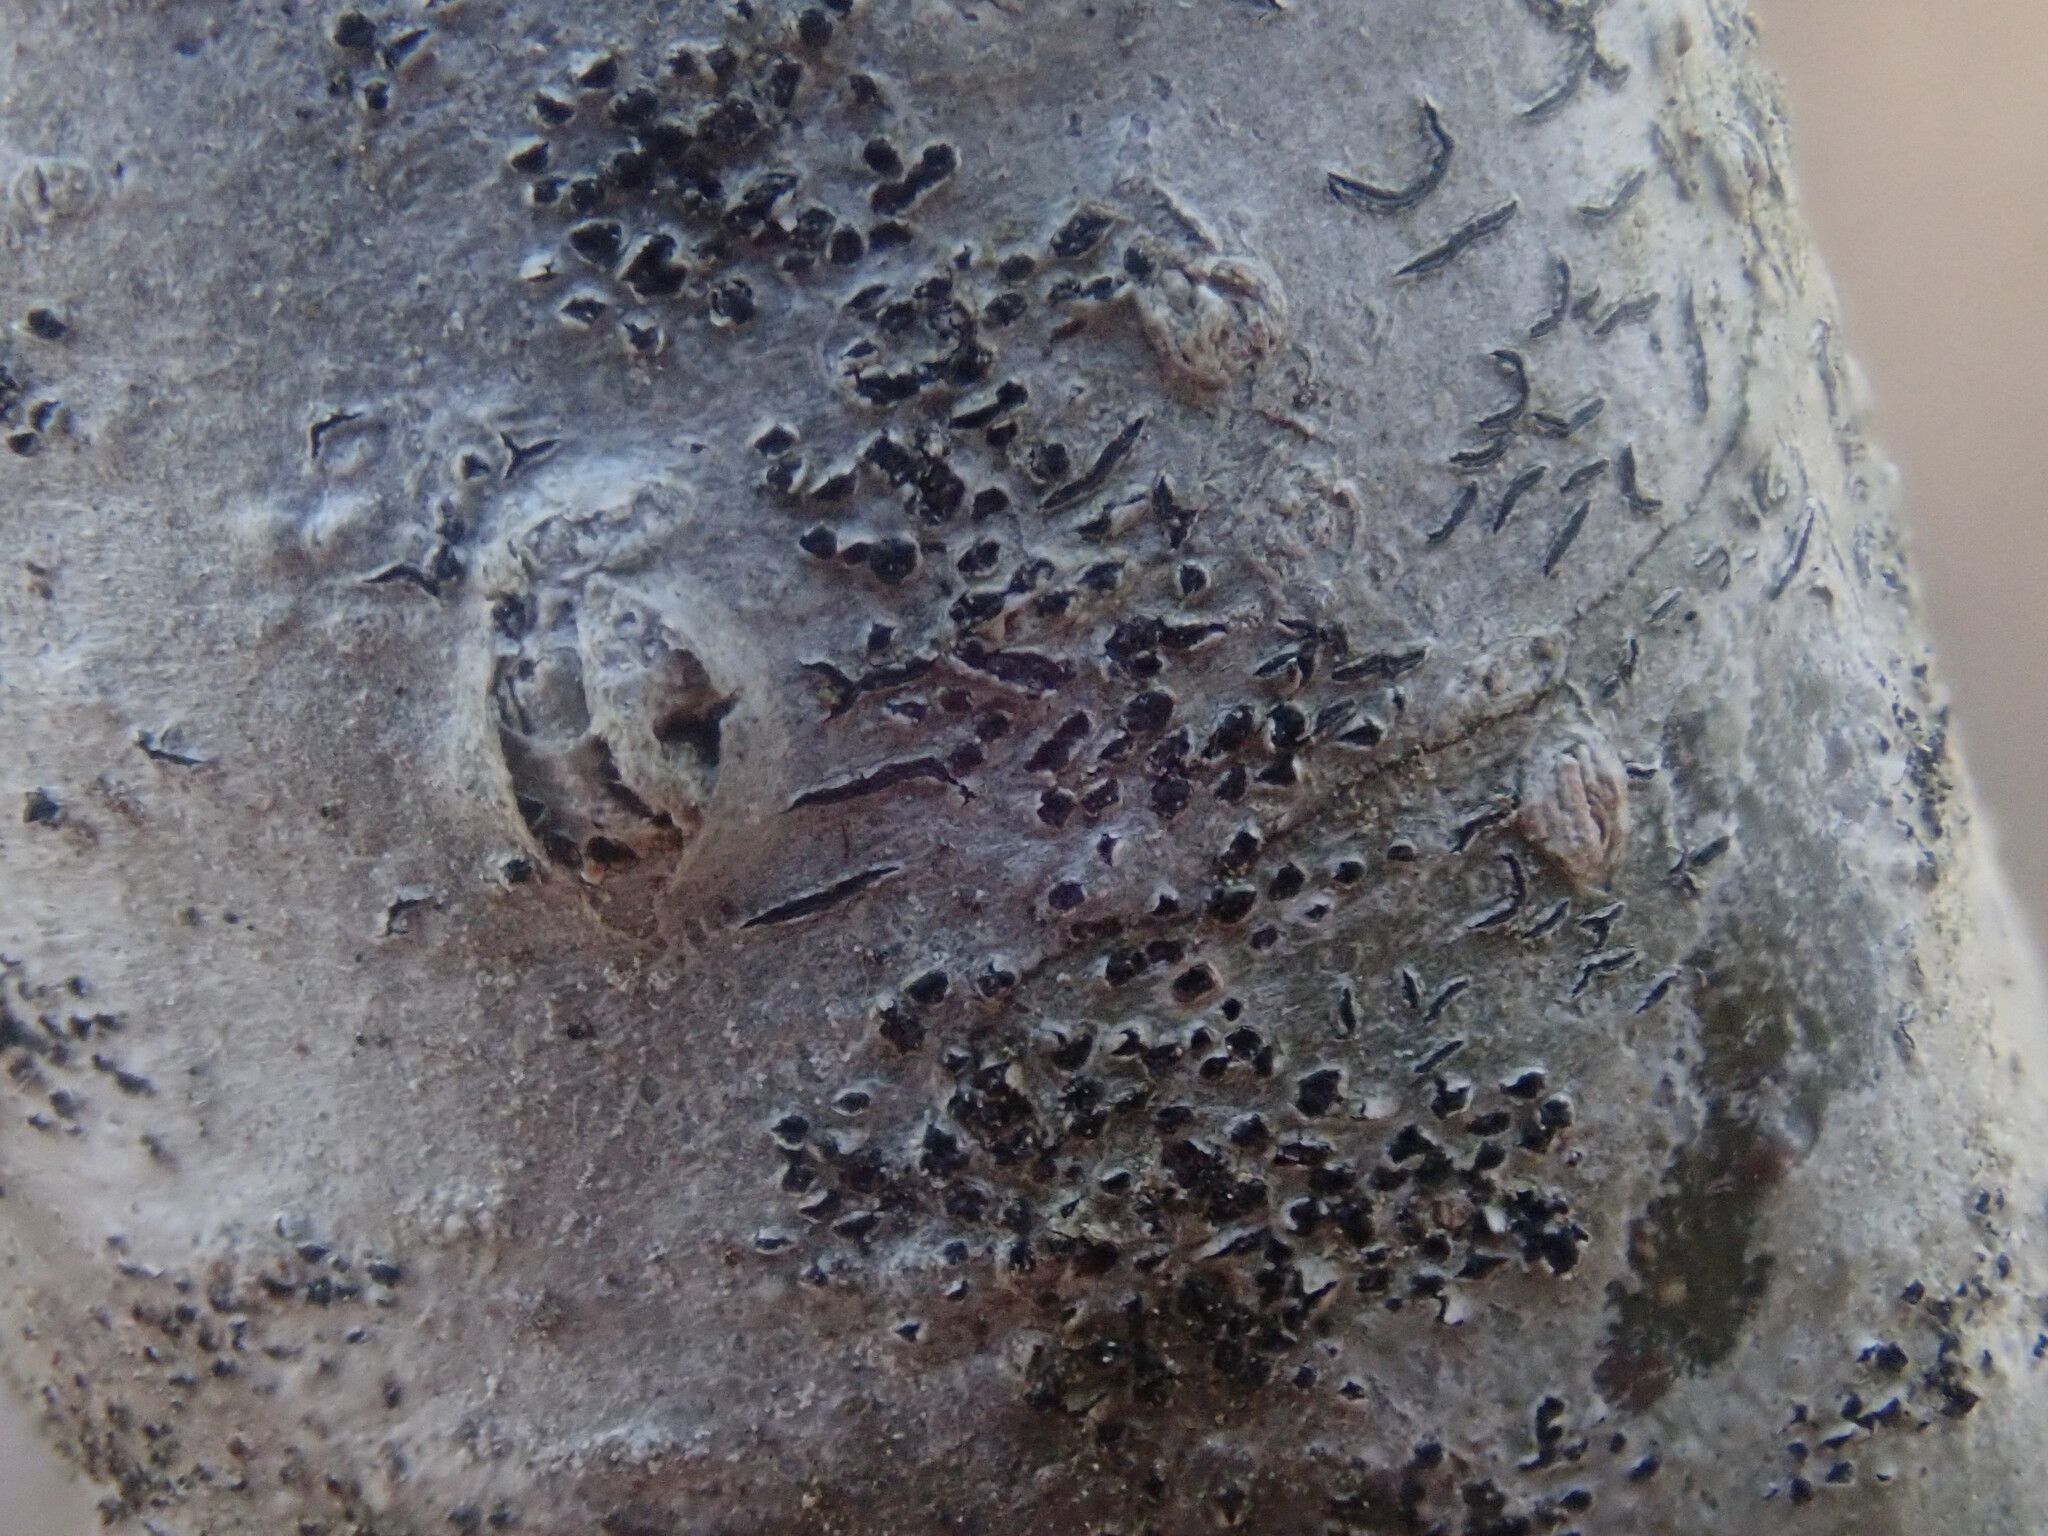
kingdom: Fungi
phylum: Ascomycota
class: Lecanoromycetes
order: Ostropales
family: Graphidaceae
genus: Graphis
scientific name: Graphis scripta
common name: Script lichen
